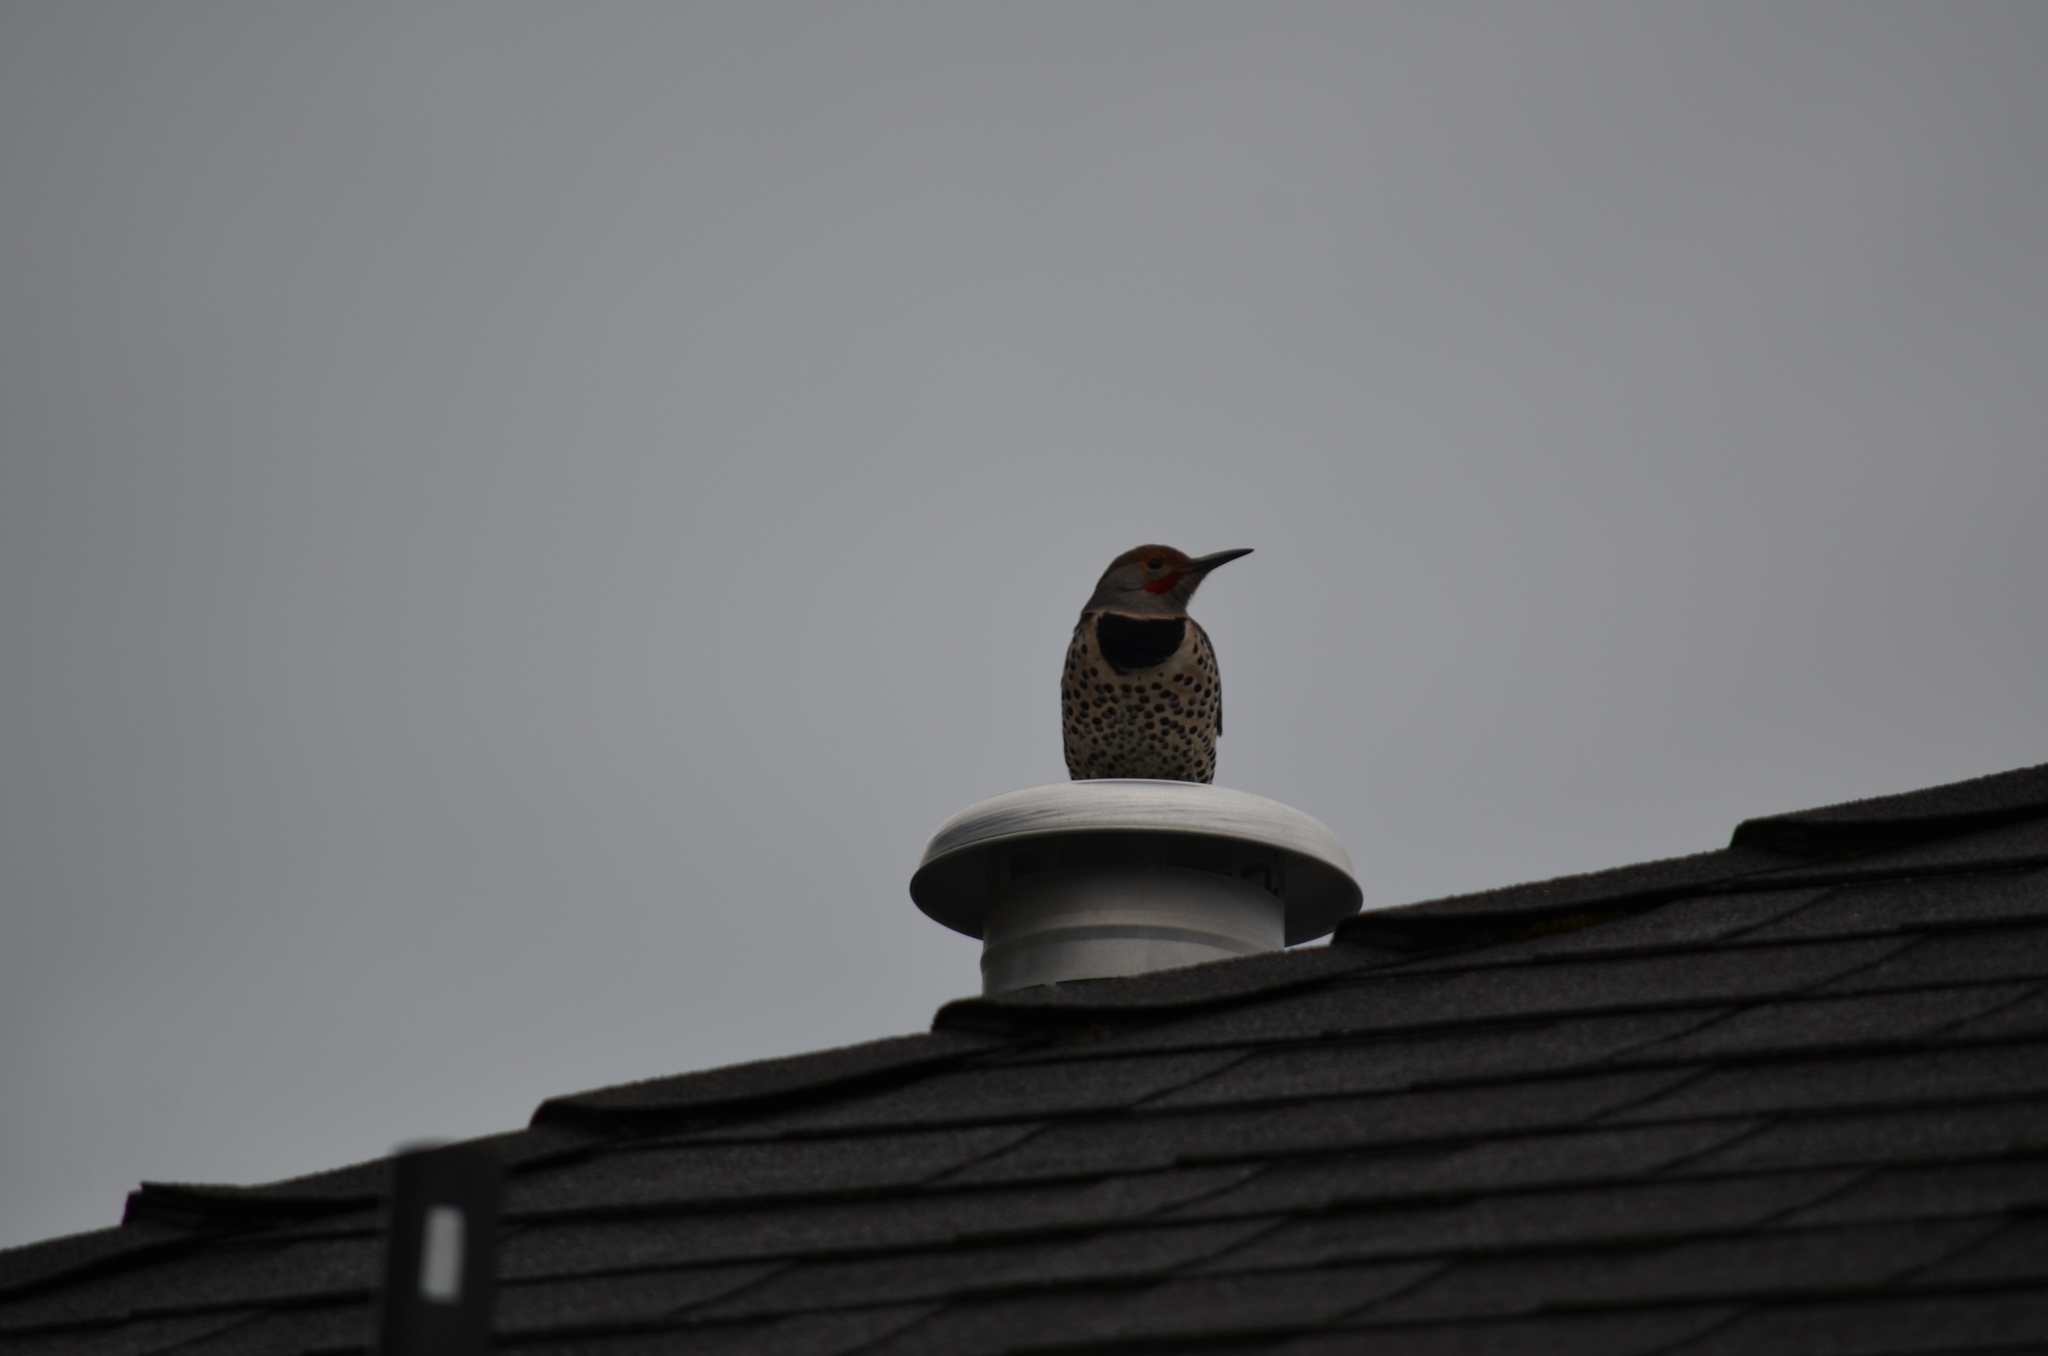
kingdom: Animalia
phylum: Chordata
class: Aves
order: Piciformes
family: Picidae
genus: Colaptes
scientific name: Colaptes auratus
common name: Northern flicker
